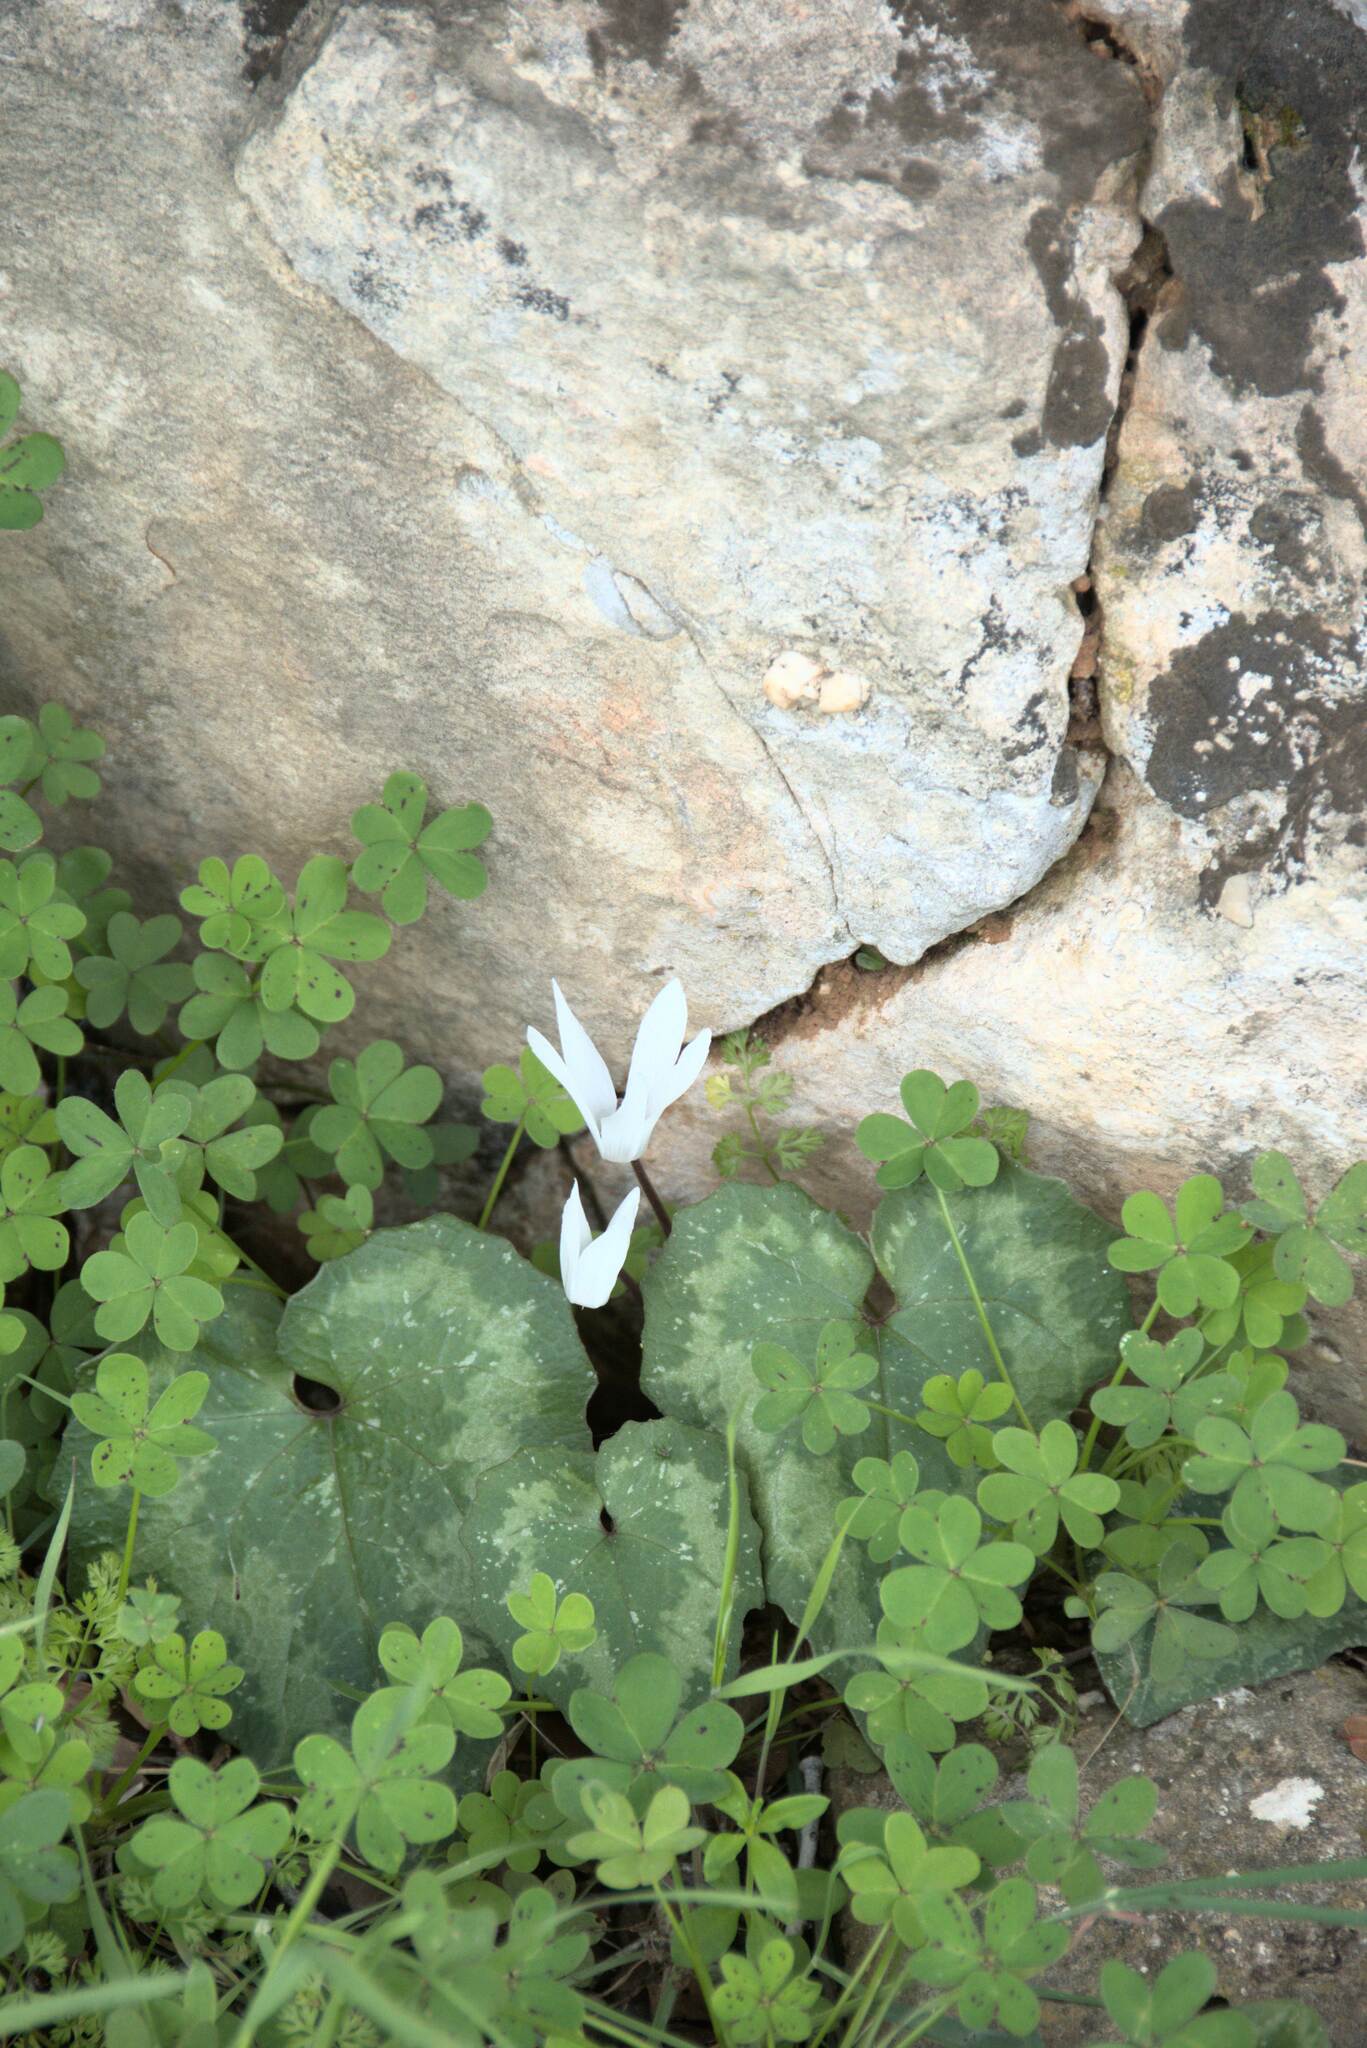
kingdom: Plantae
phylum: Tracheophyta
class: Magnoliopsida
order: Ericales
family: Primulaceae
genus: Cyclamen
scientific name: Cyclamen creticum
